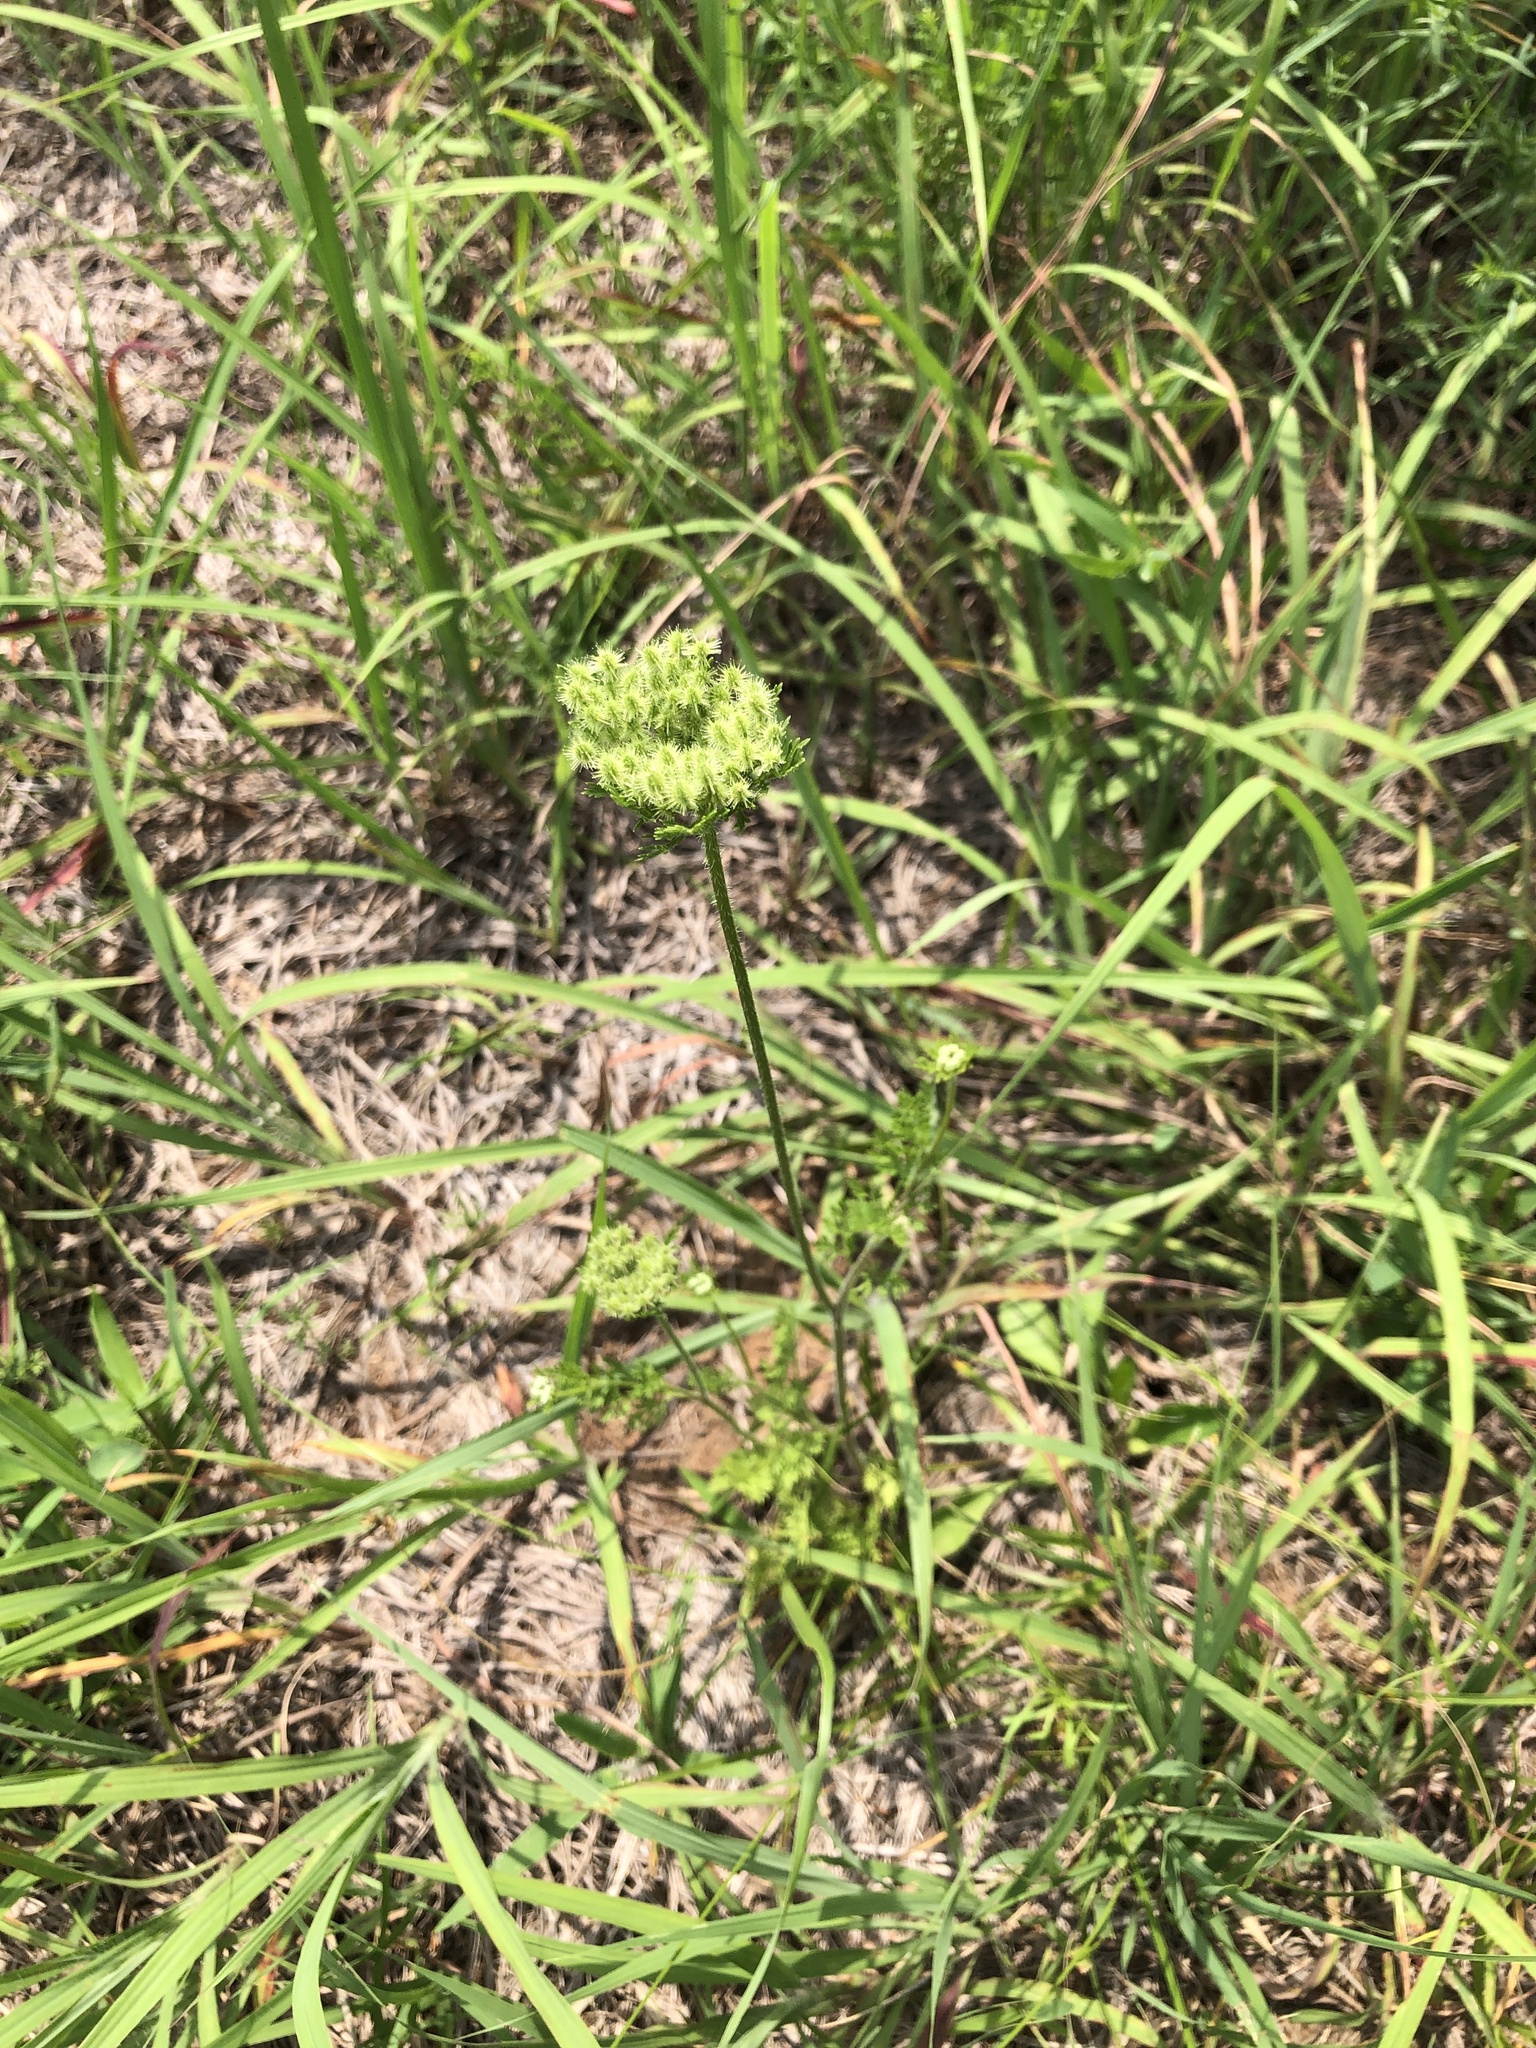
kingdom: Plantae
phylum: Tracheophyta
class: Magnoliopsida
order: Apiales
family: Apiaceae
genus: Daucus
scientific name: Daucus pusillus
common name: Southwest wild carrot
